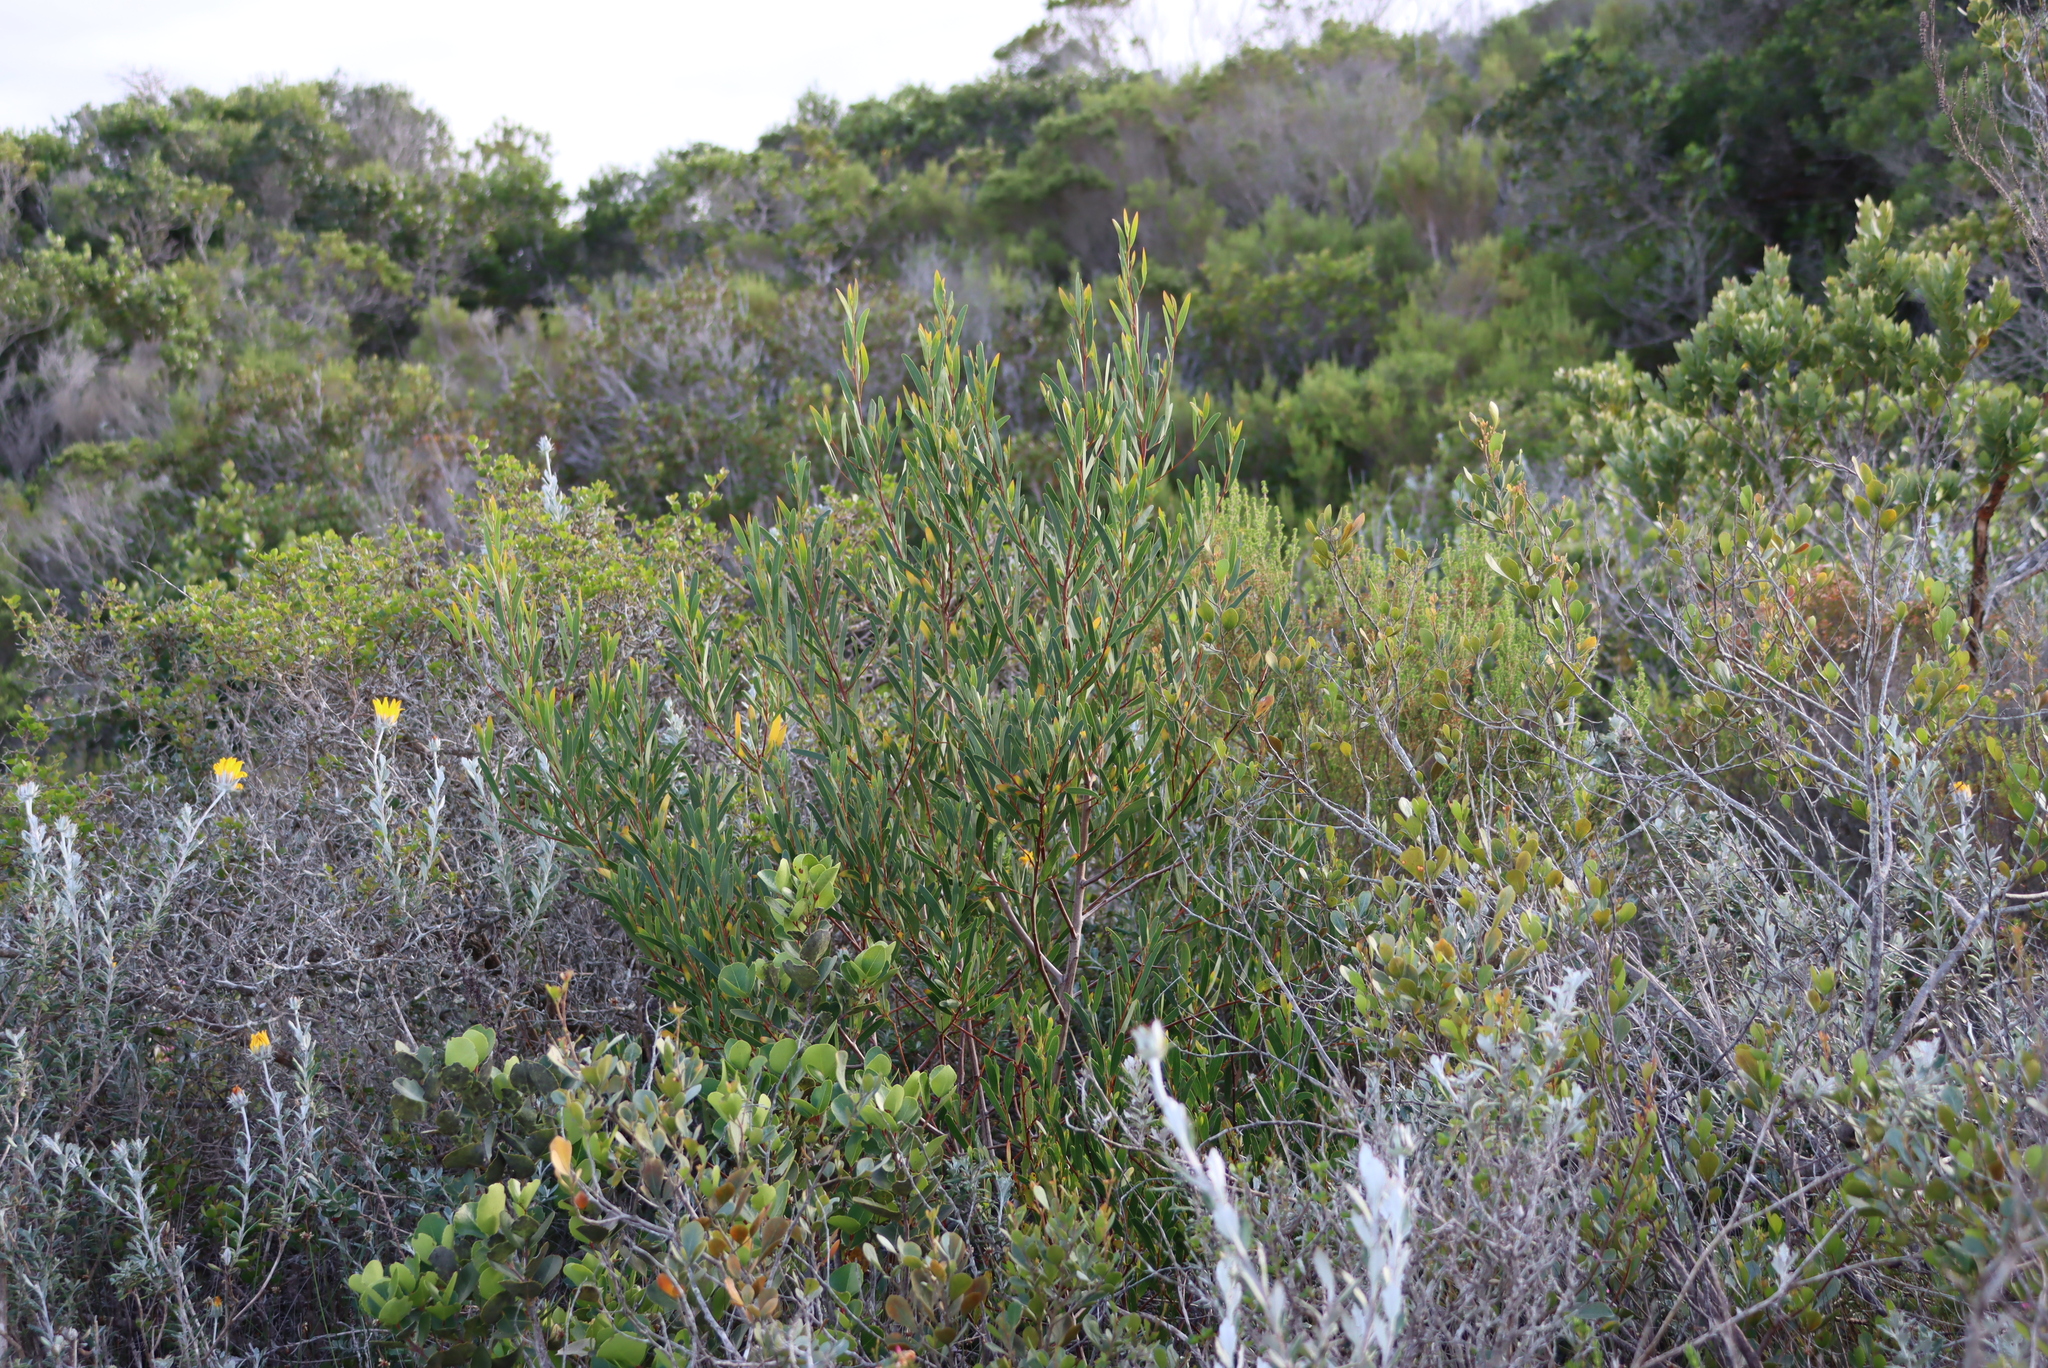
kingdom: Plantae
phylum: Tracheophyta
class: Magnoliopsida
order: Fabales
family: Fabaceae
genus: Acacia
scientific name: Acacia cyclops
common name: Coastal wattle
